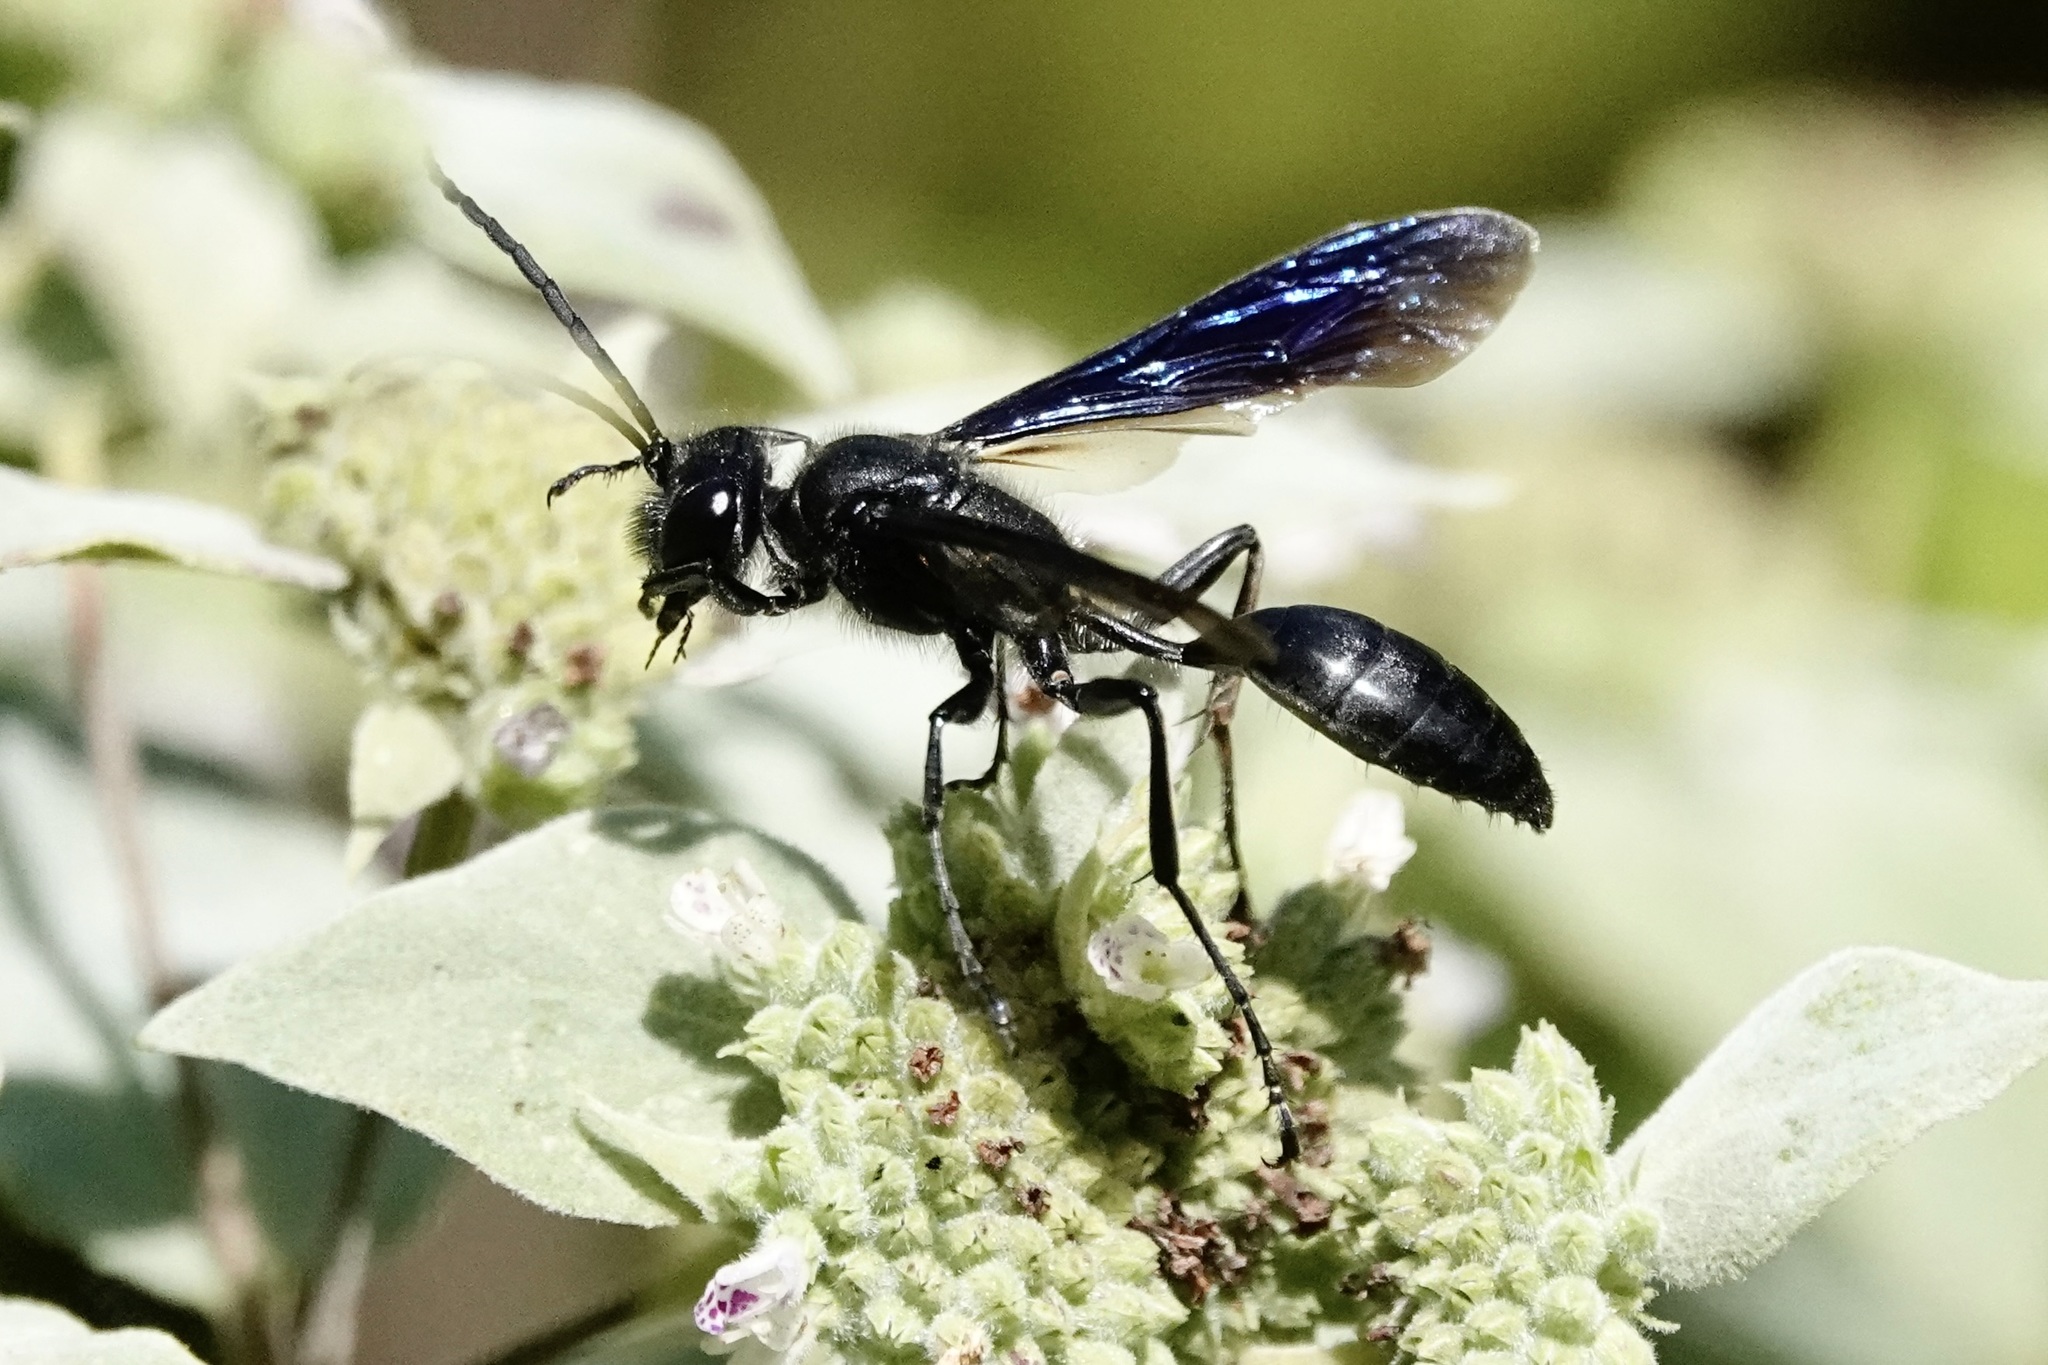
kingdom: Animalia
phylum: Arthropoda
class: Insecta
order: Hymenoptera
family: Sphecidae
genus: Isodontia
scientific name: Isodontia philadelphica
